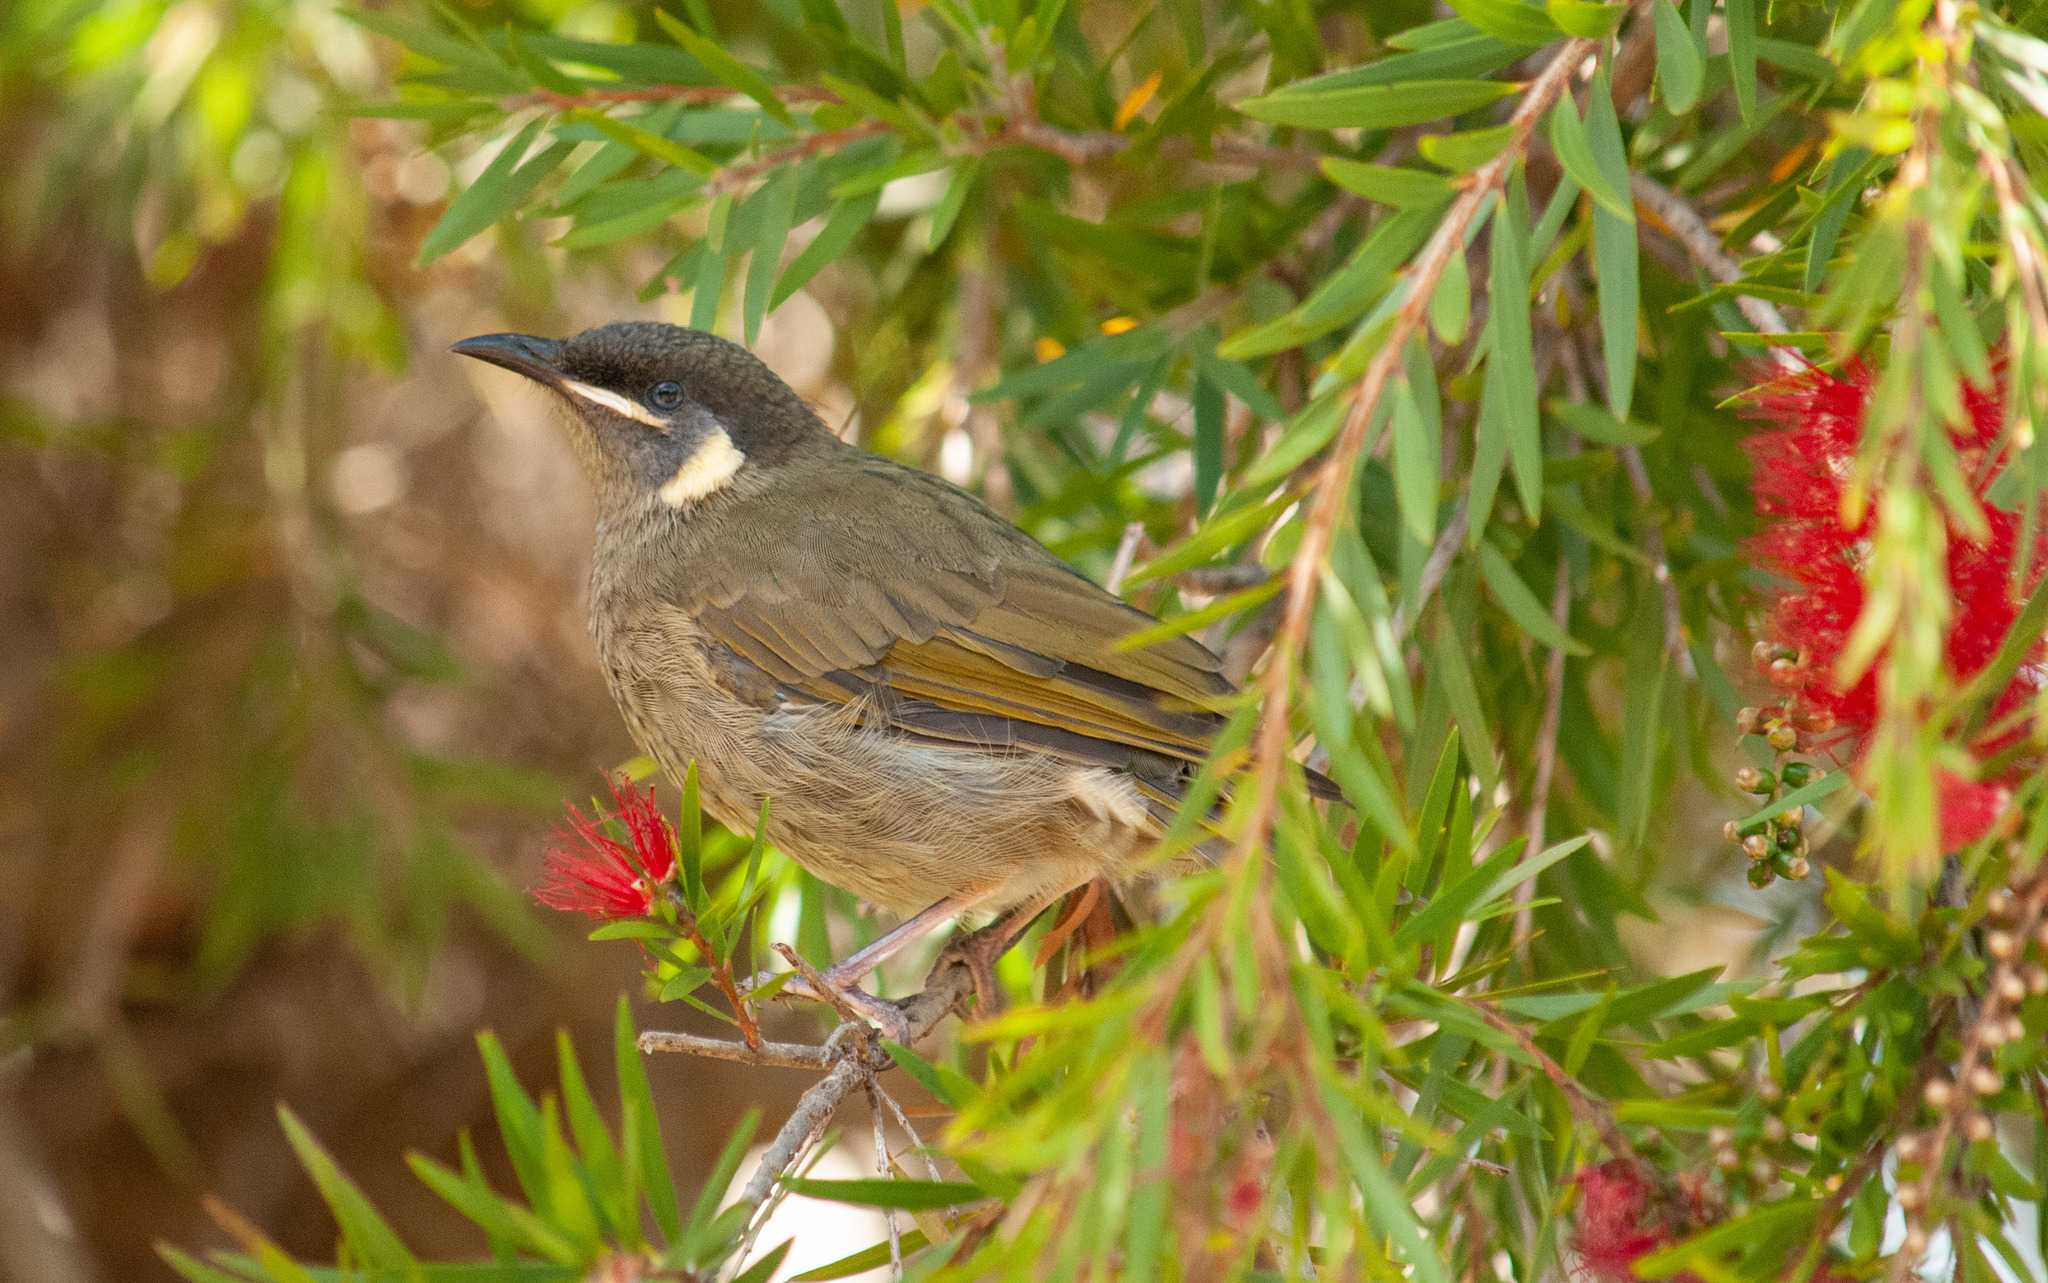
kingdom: Animalia
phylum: Chordata
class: Aves
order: Passeriformes
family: Meliphagidae
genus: Meliphaga
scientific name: Meliphaga lewinii
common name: Lewin's honeyeater
